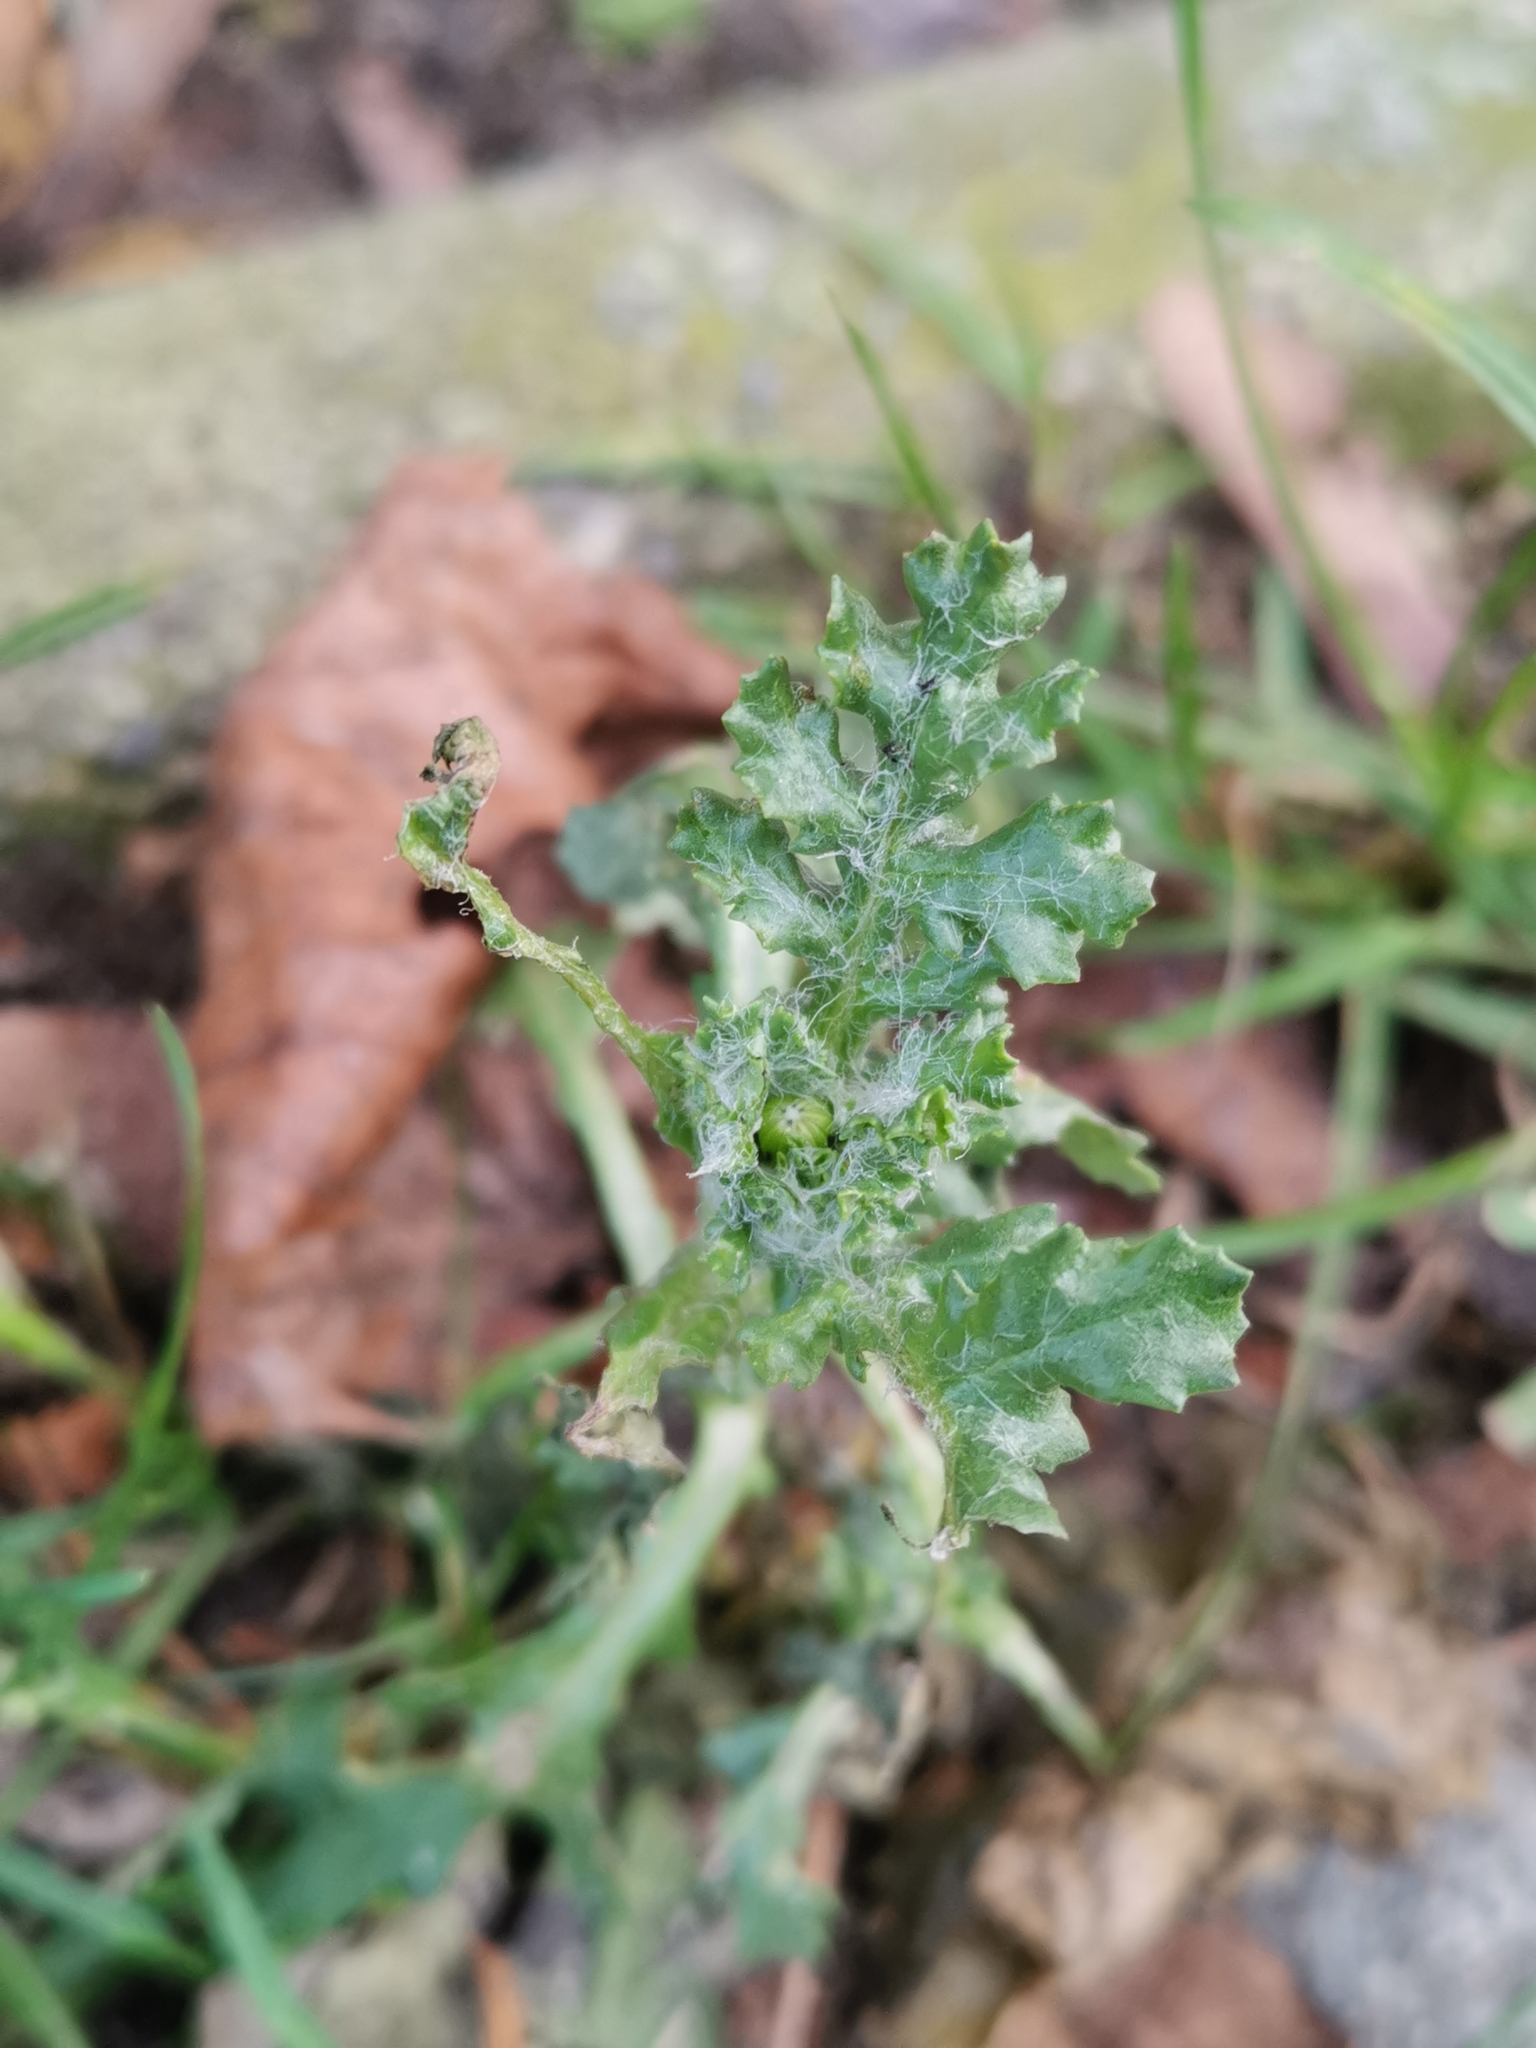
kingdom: Plantae
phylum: Tracheophyta
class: Magnoliopsida
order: Asterales
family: Asteraceae
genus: Senecio
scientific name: Senecio vulgaris
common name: Old-man-in-the-spring
